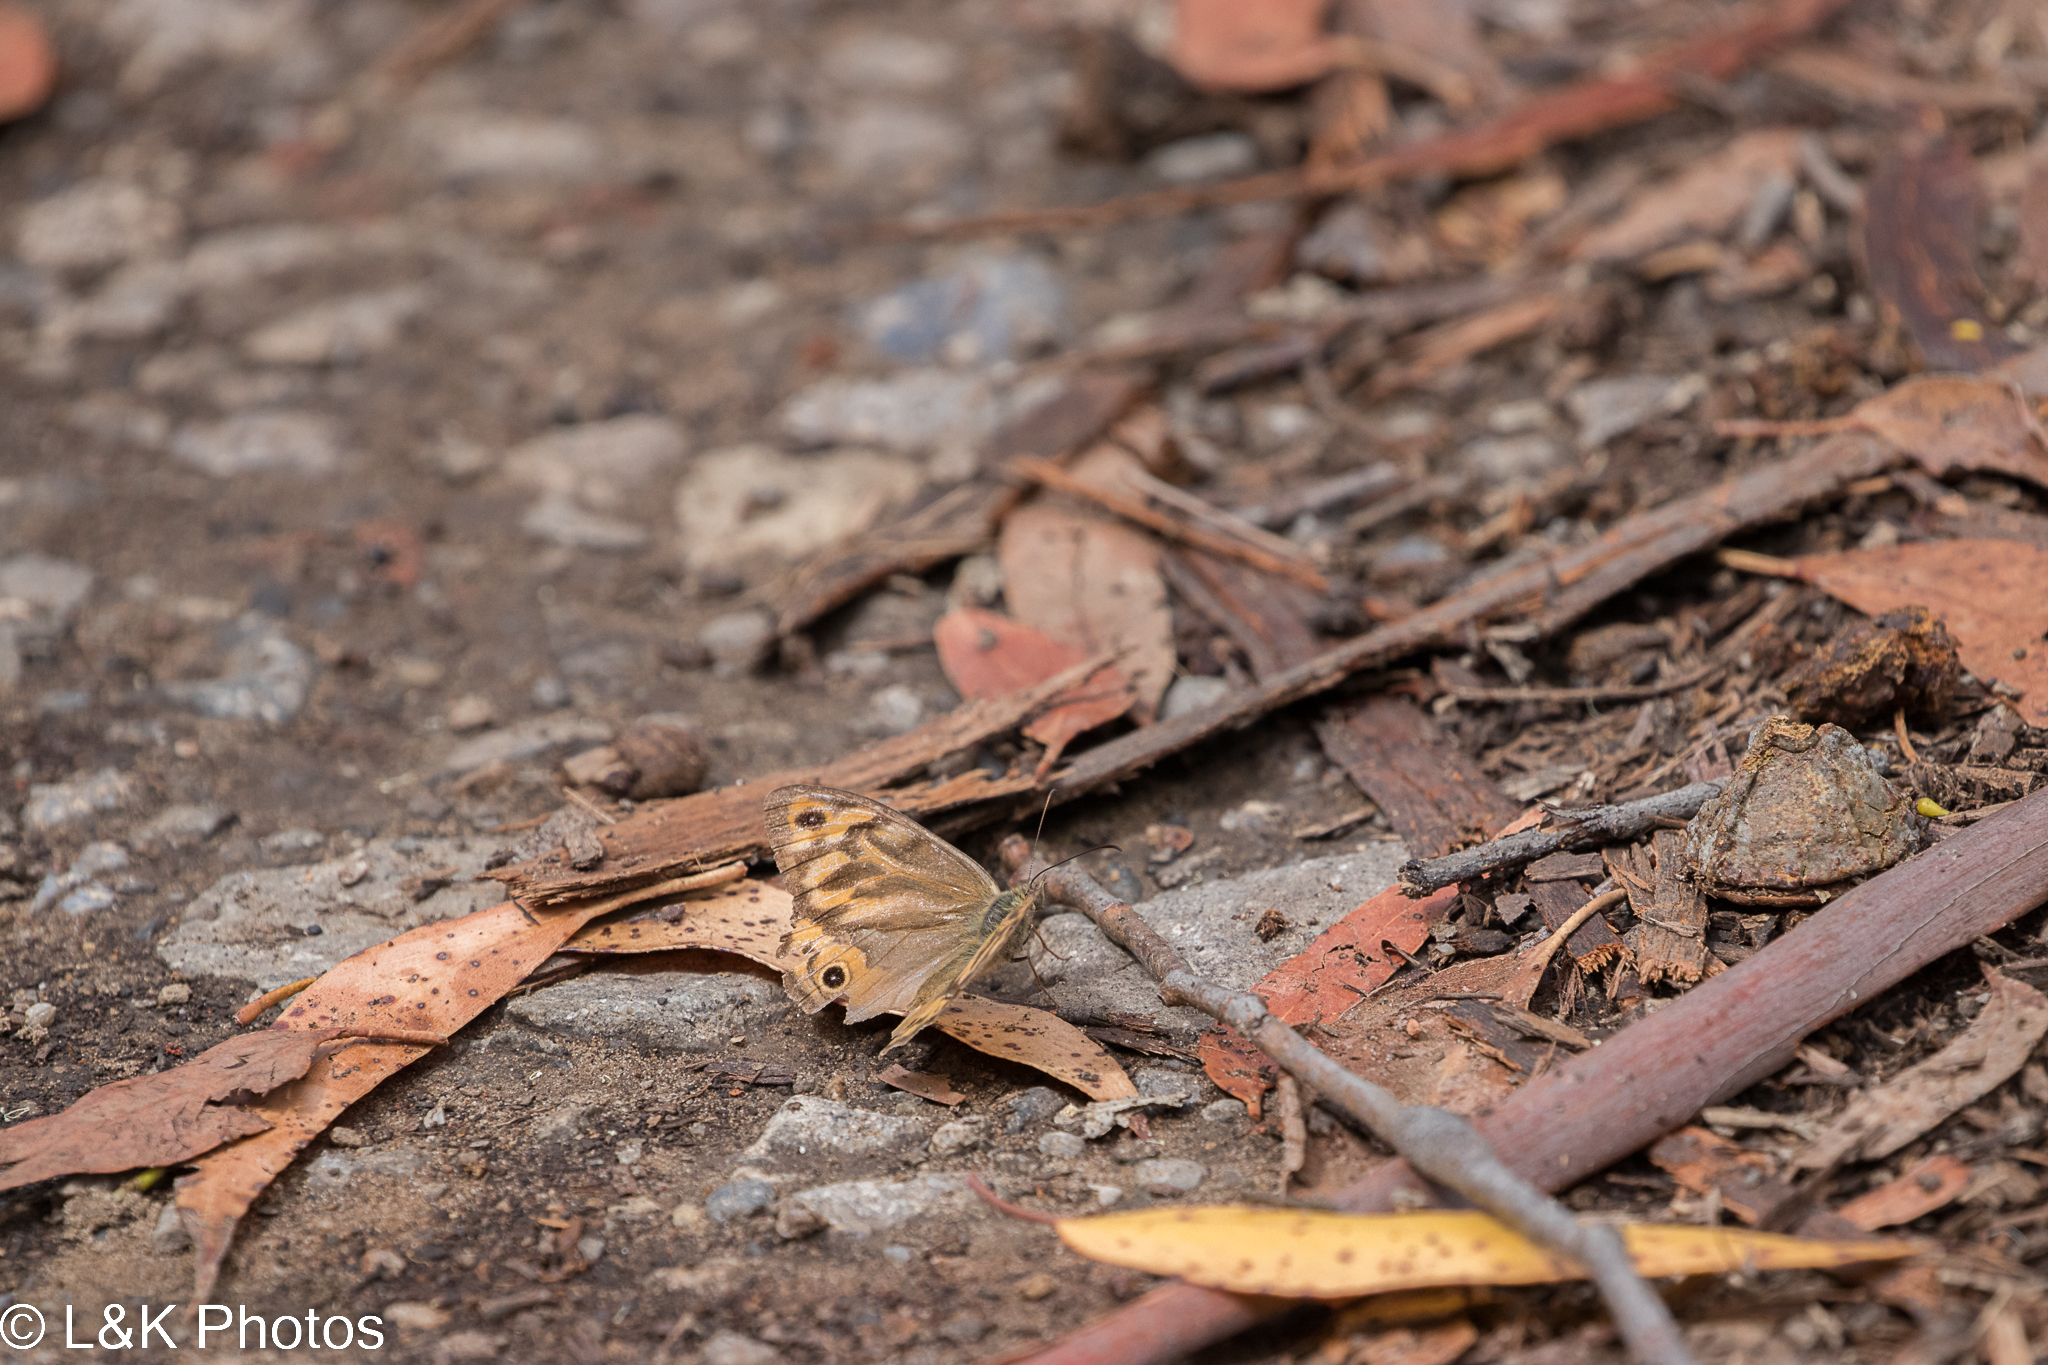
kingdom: Animalia
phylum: Arthropoda
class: Insecta
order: Lepidoptera
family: Nymphalidae
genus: Heteronympha
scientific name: Heteronympha merope
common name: Common brown
